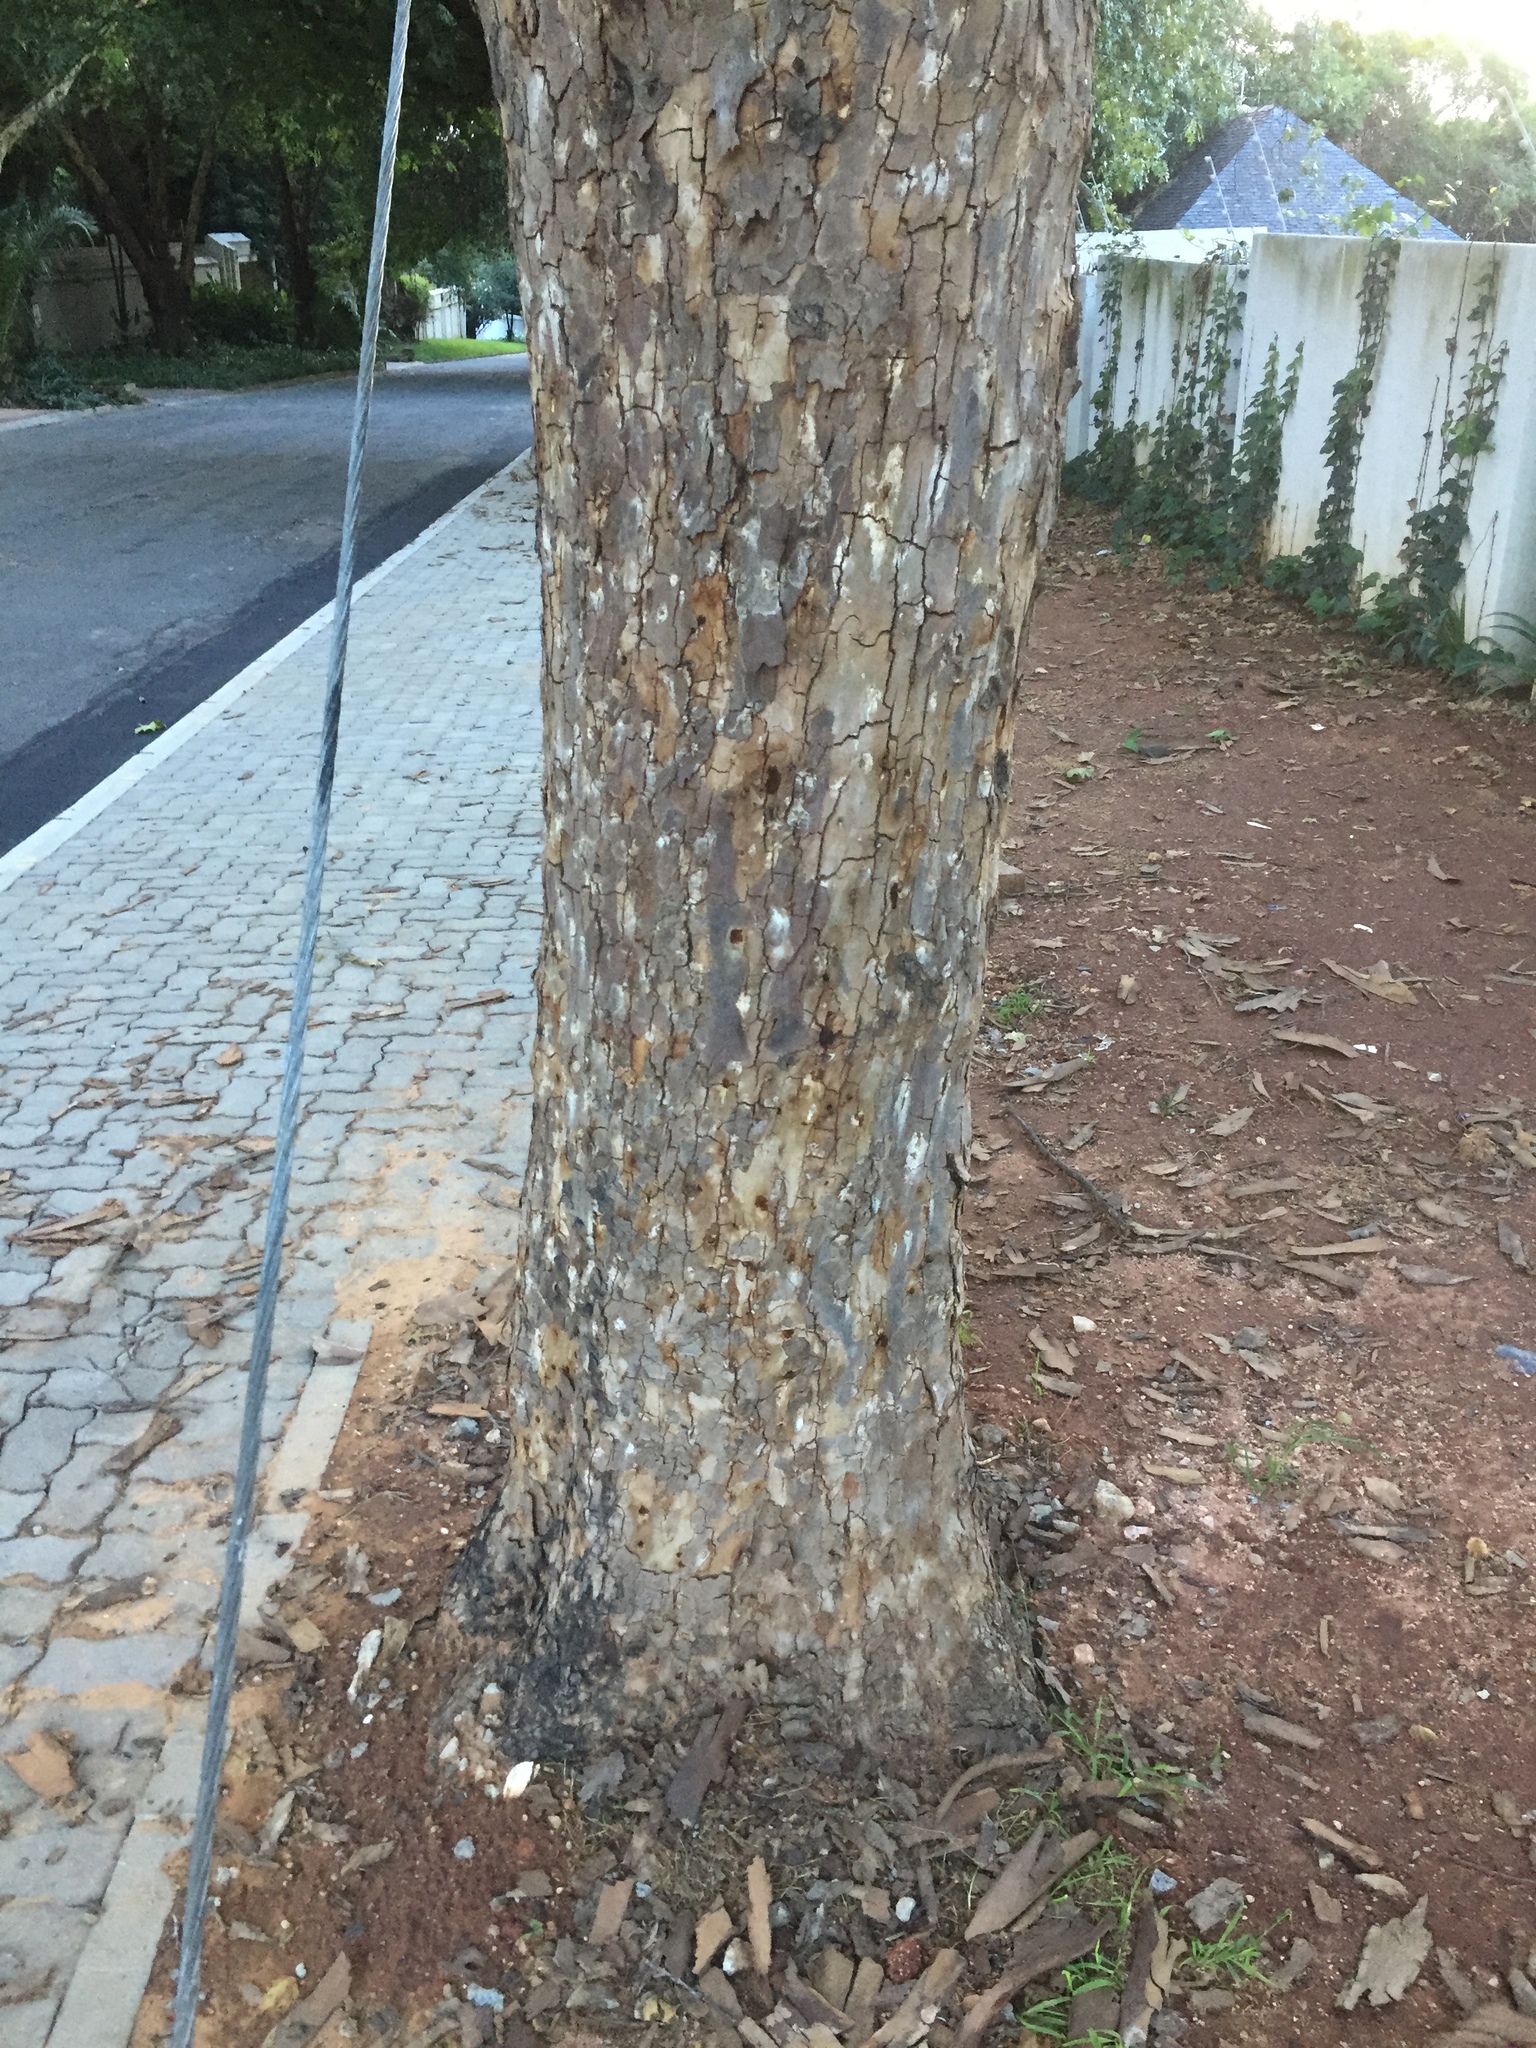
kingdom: Animalia
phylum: Arthropoda
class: Insecta
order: Coleoptera
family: Curculionidae
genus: Euwallacea
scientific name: Euwallacea fornicatus
